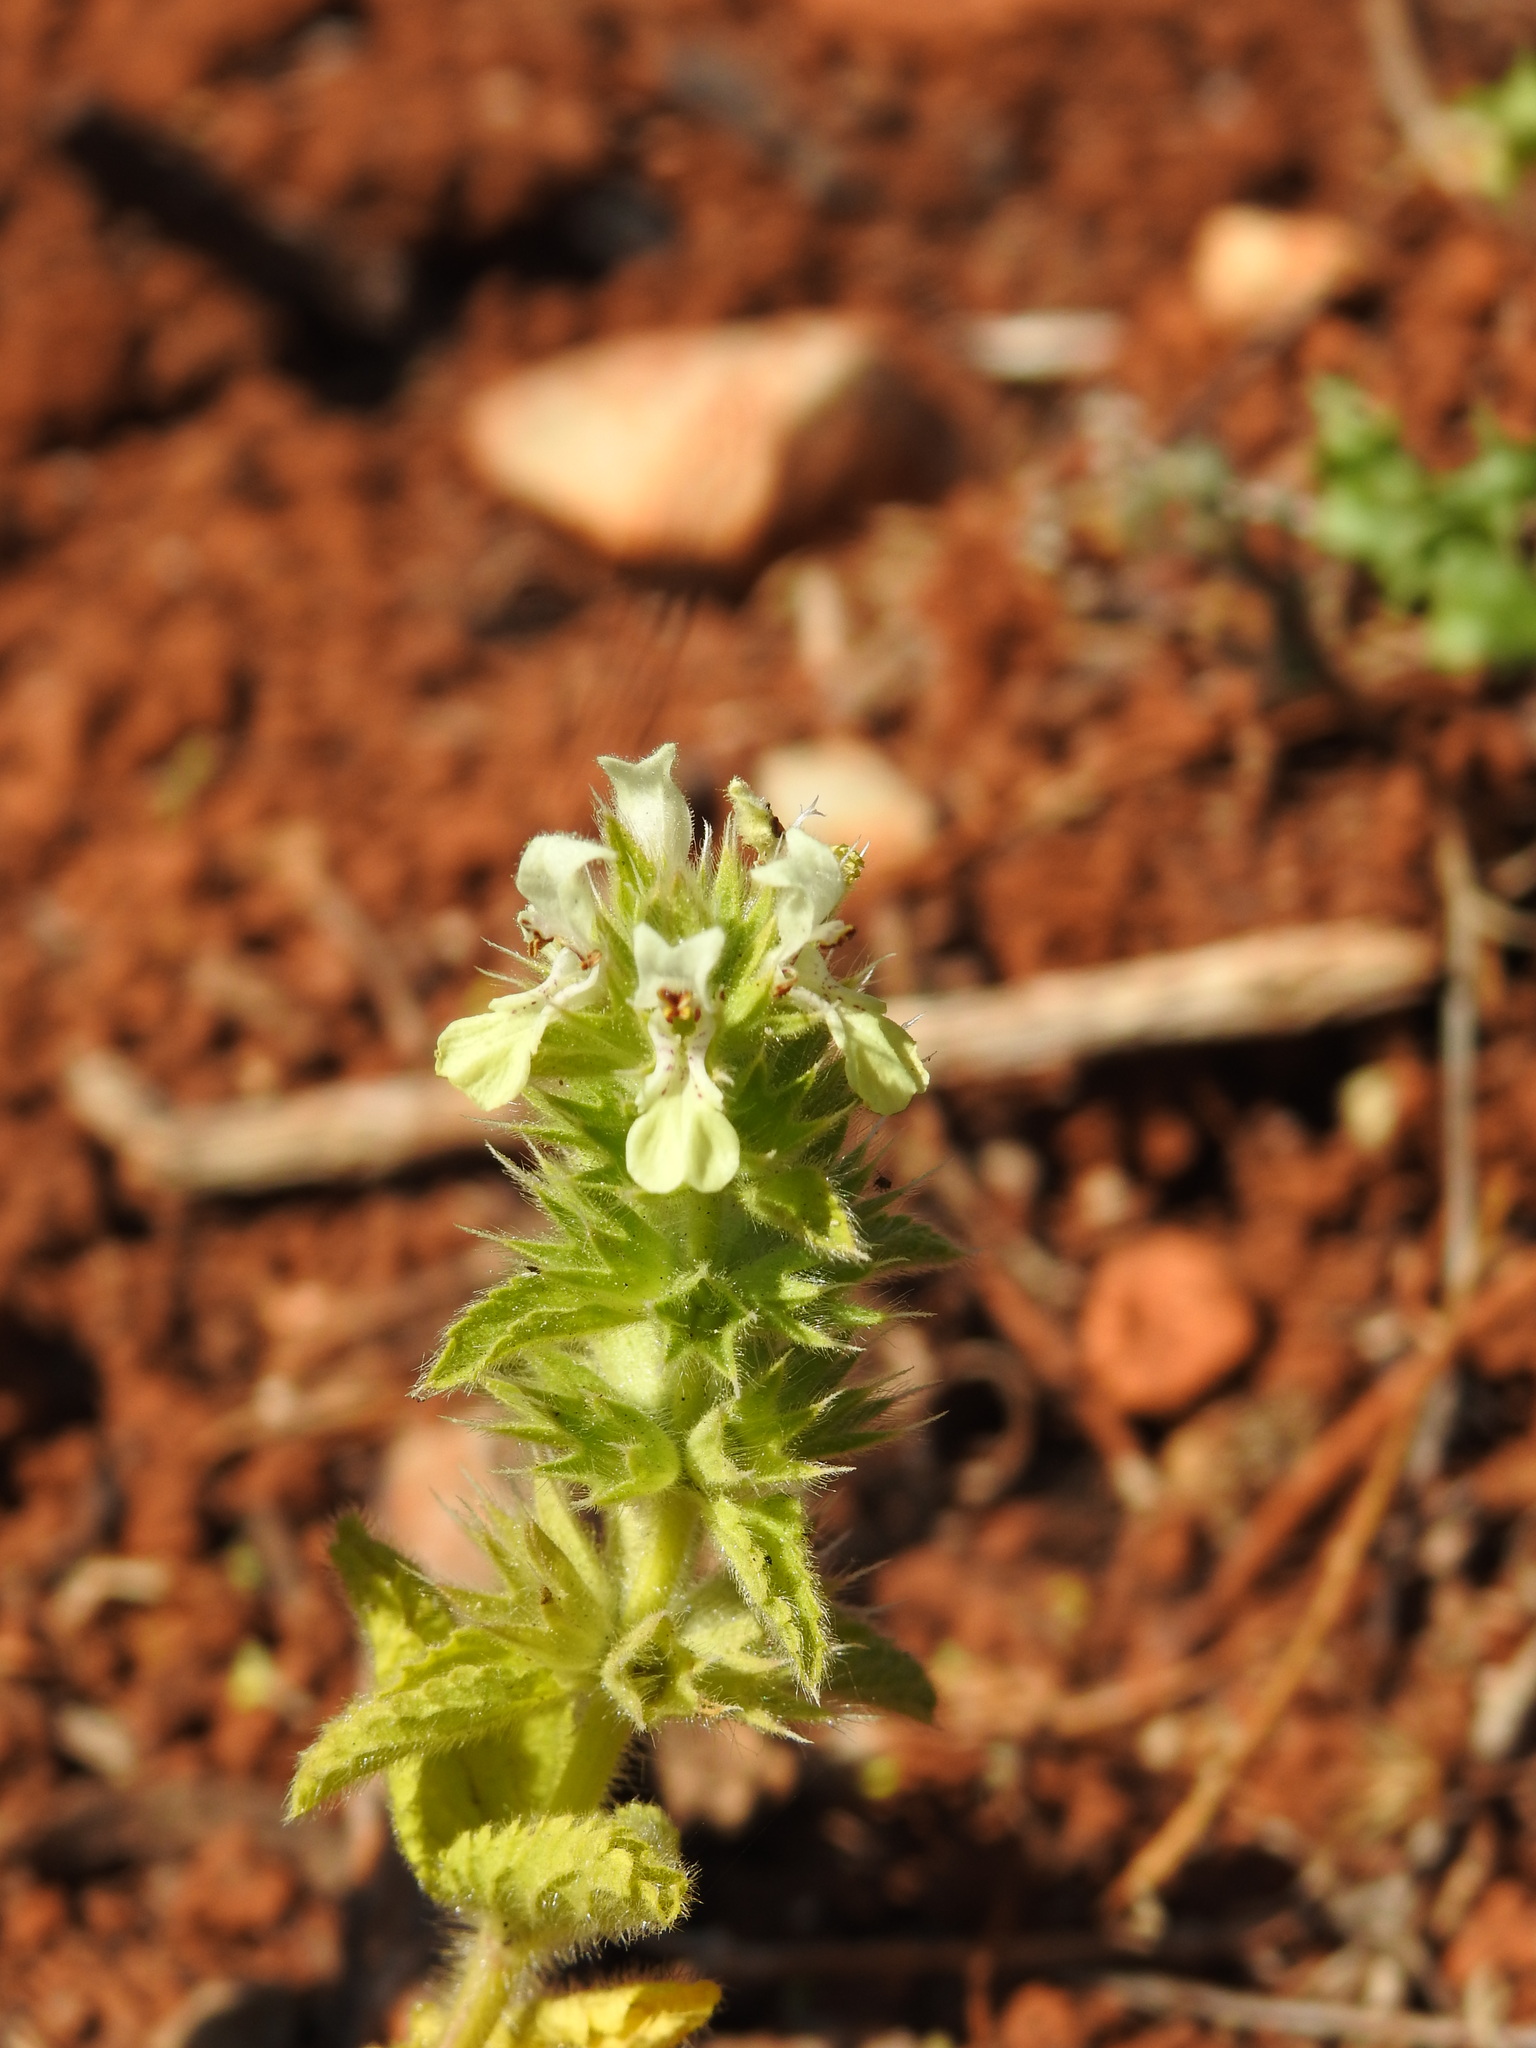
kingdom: Plantae
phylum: Tracheophyta
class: Magnoliopsida
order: Lamiales
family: Lamiaceae
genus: Stachys
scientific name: Stachys ocymastrum
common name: Italian hedgenettle
